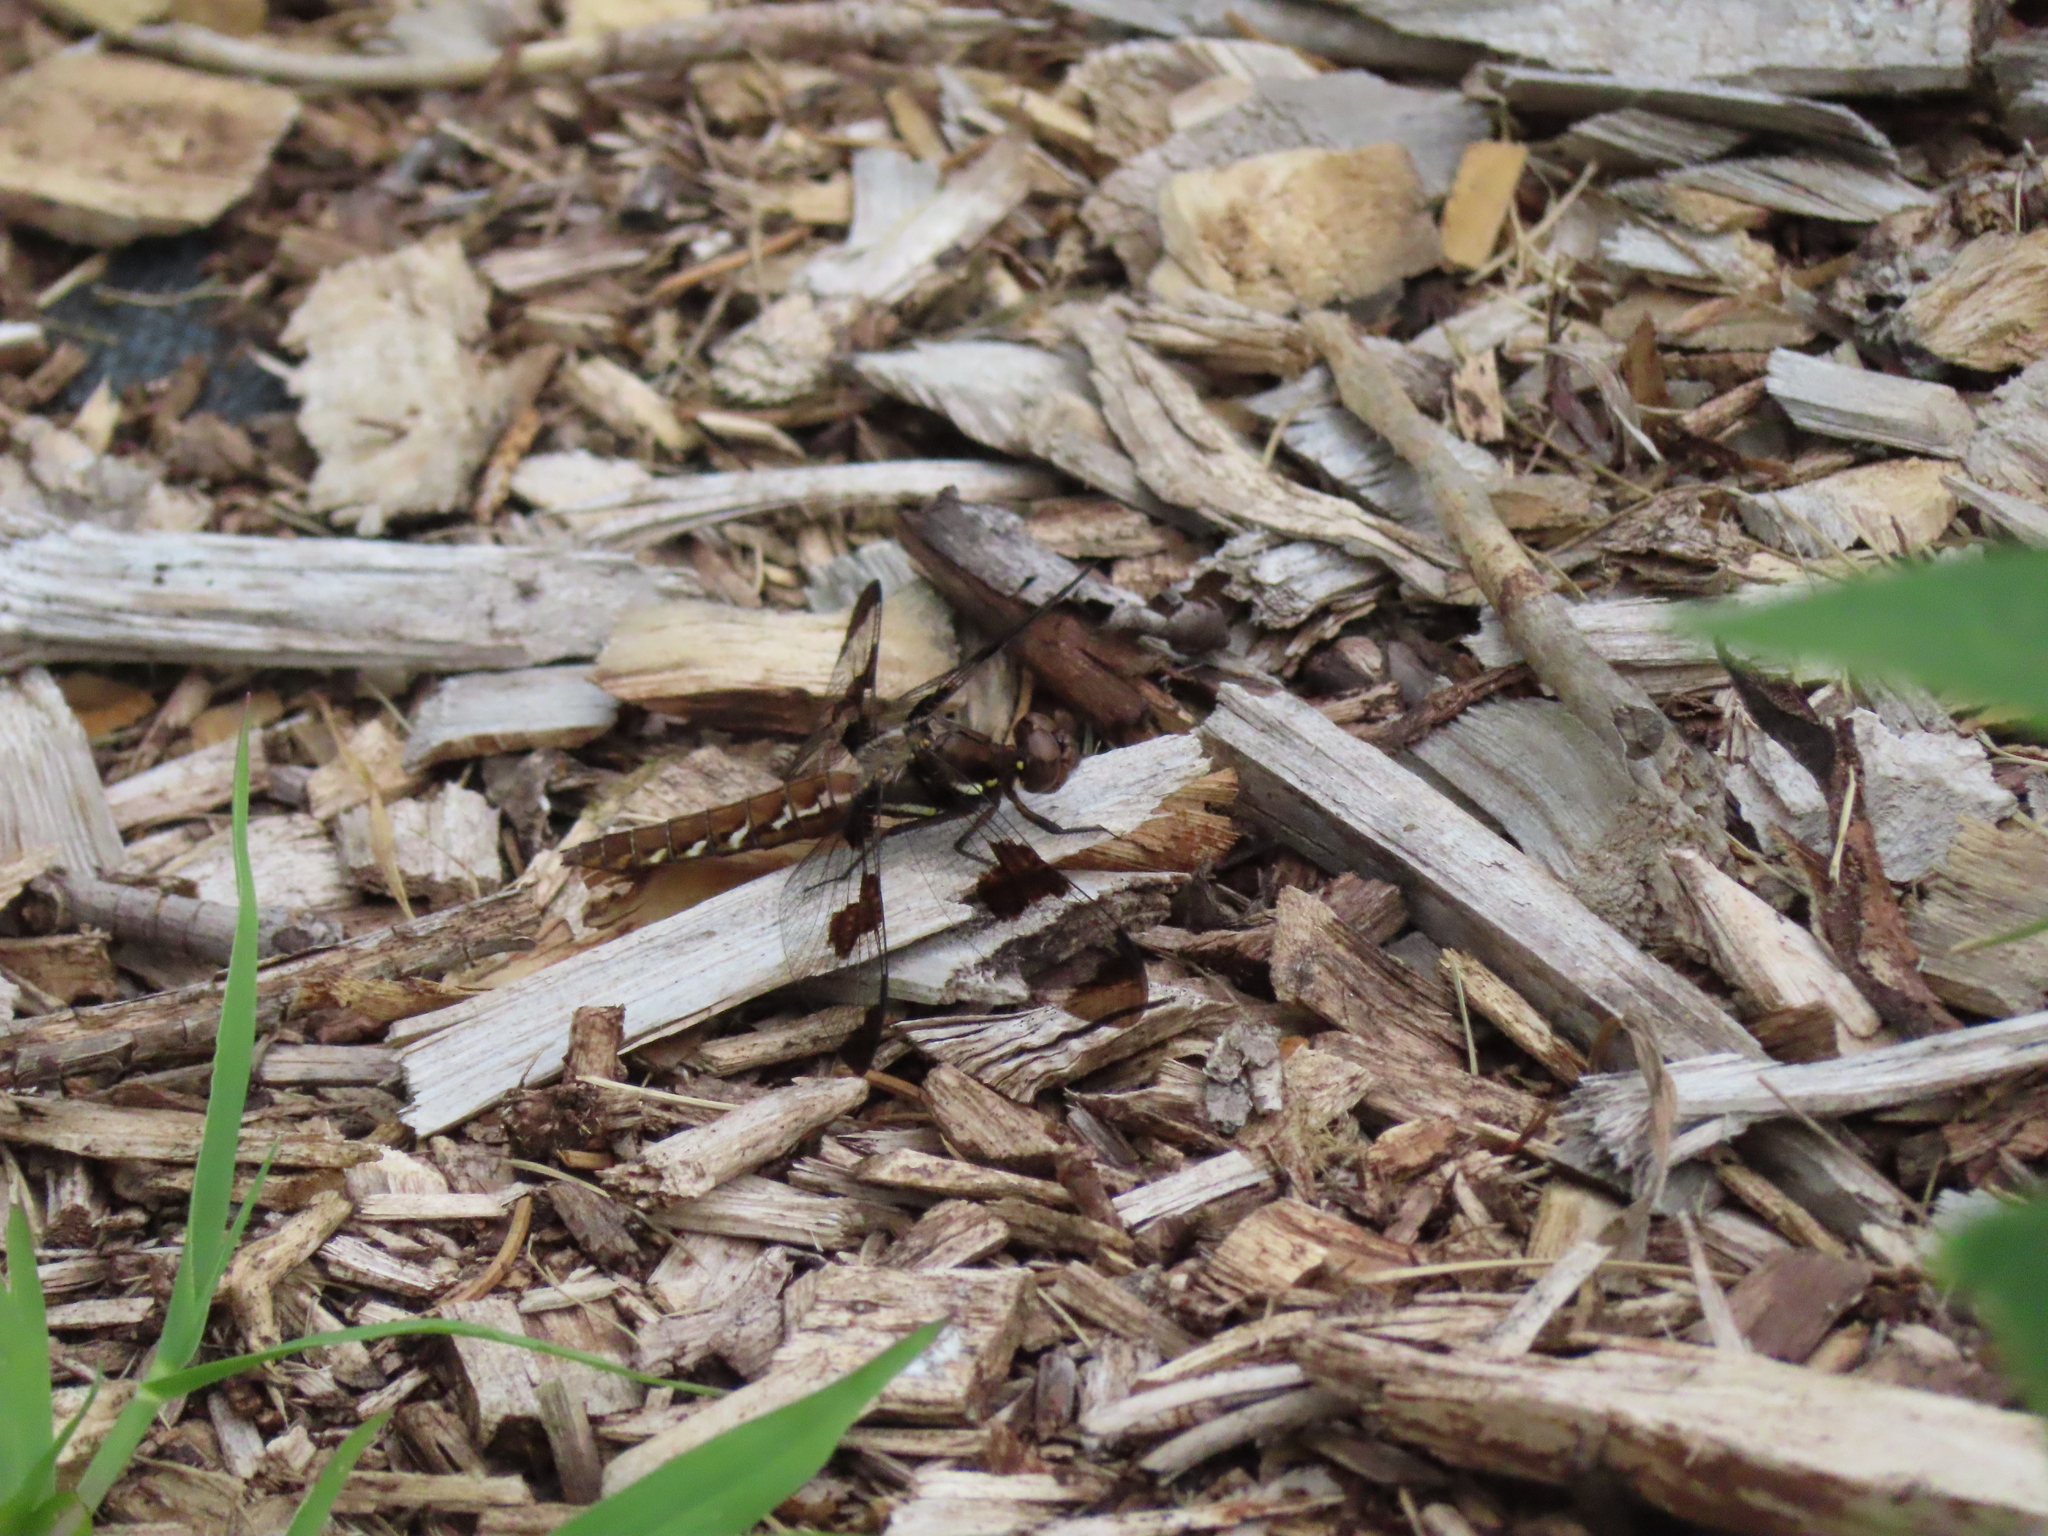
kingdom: Animalia
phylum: Arthropoda
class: Insecta
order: Odonata
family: Libellulidae
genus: Plathemis
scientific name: Plathemis lydia
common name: Common whitetail
